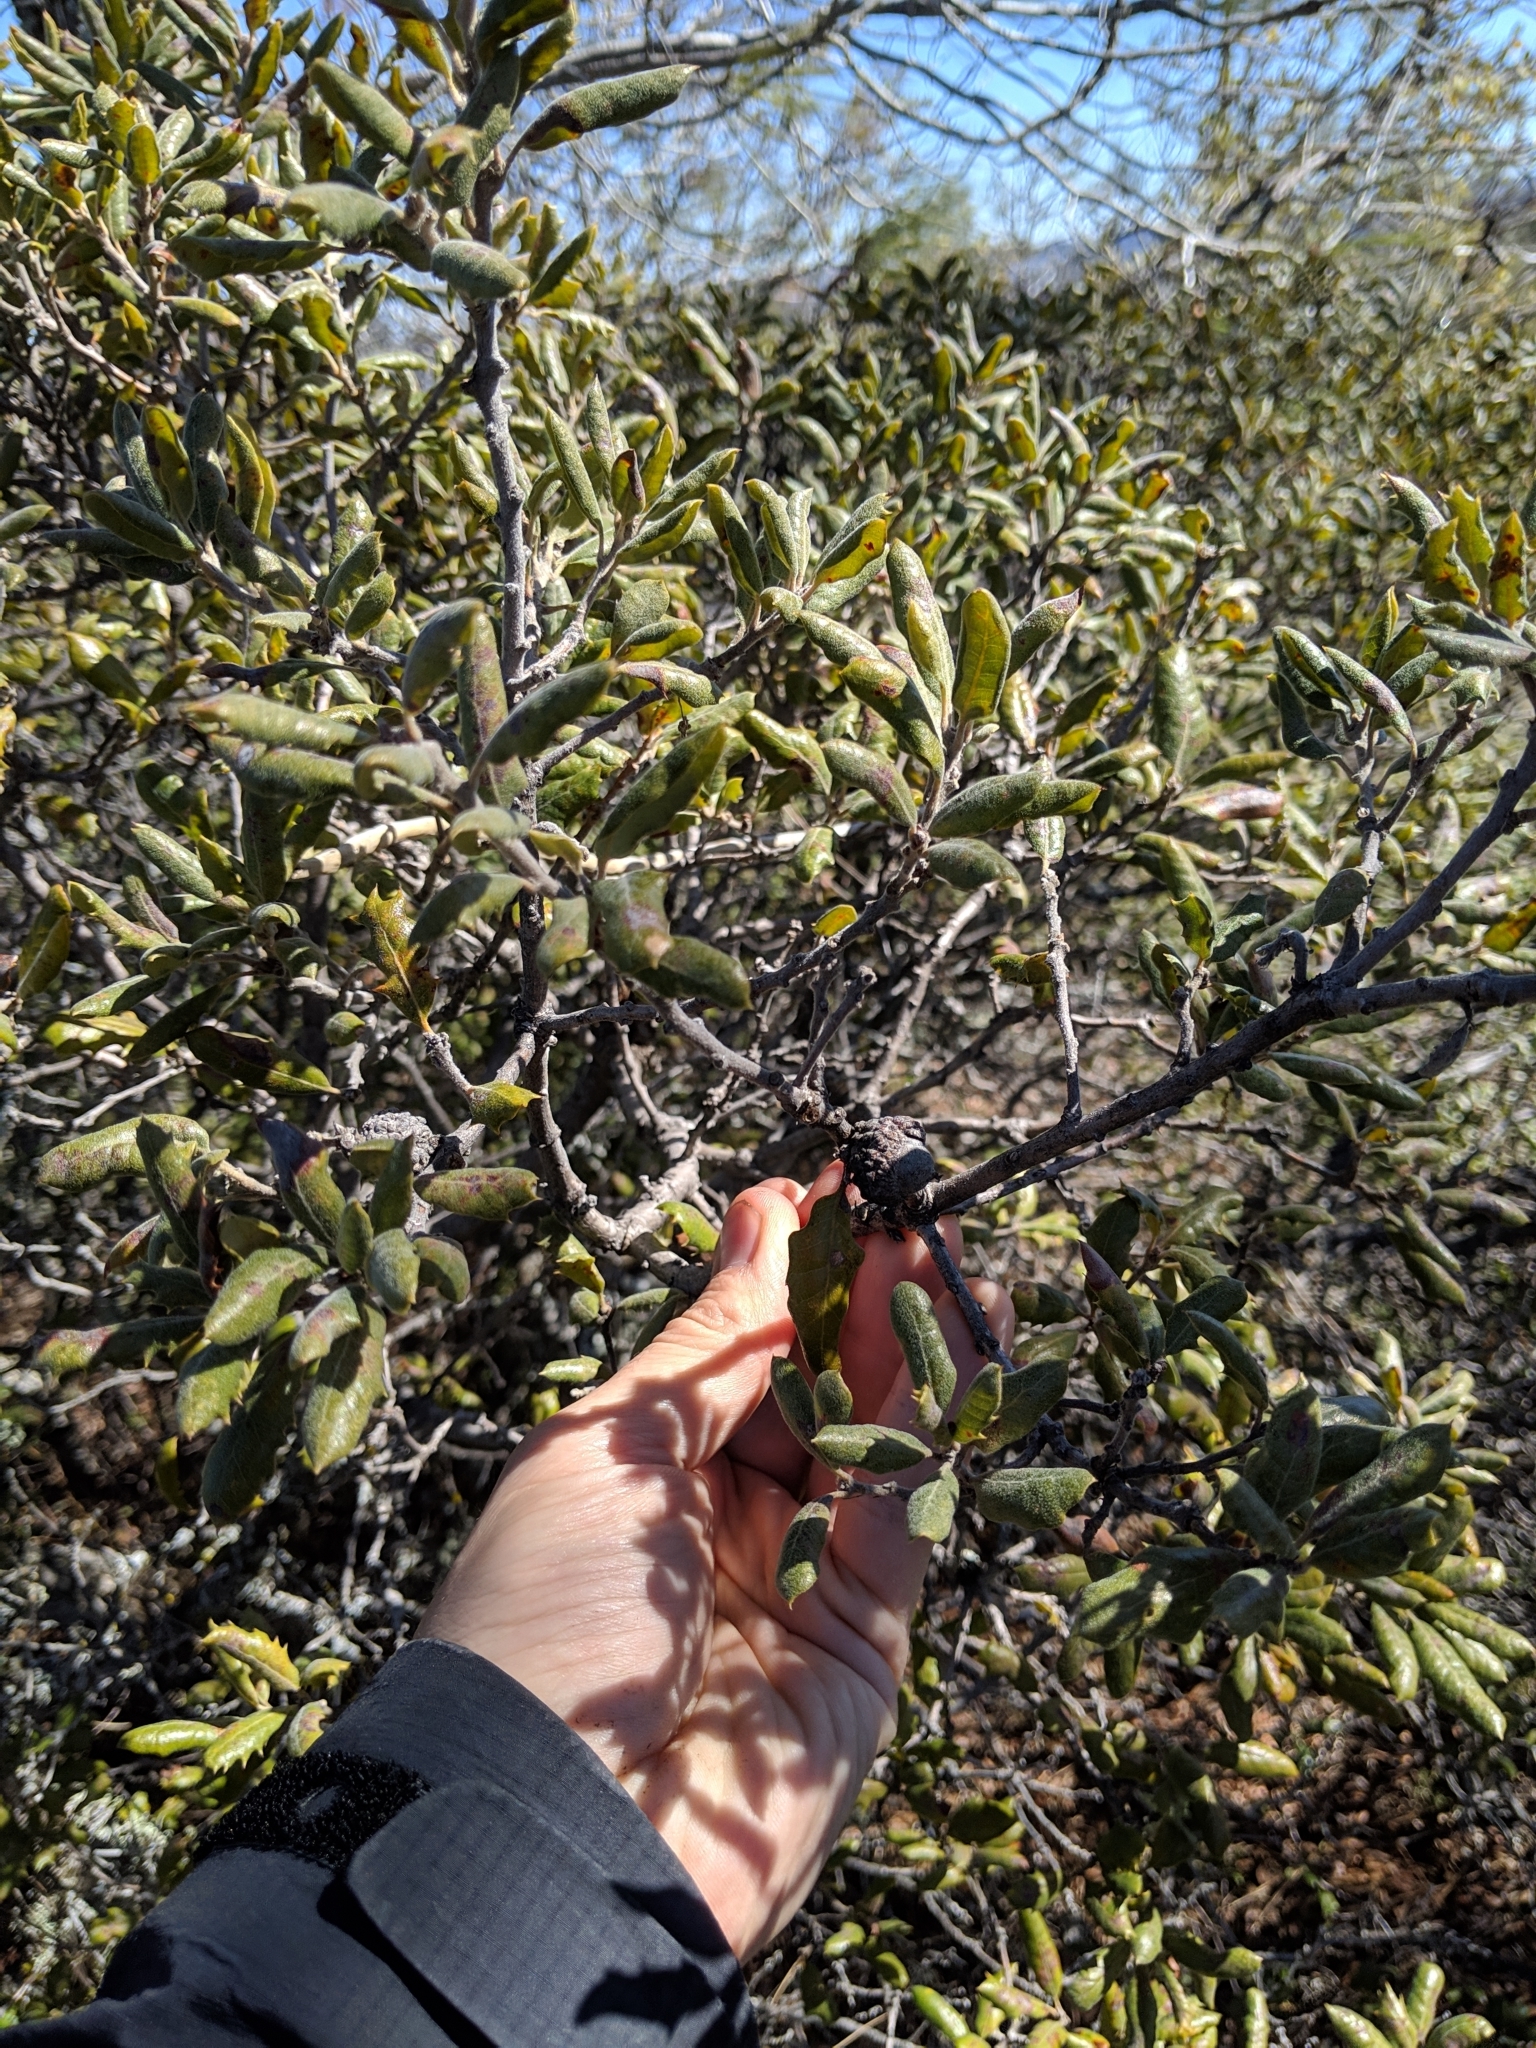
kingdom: Plantae
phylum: Tracheophyta
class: Magnoliopsida
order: Fagales
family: Fagaceae
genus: Quercus
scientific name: Quercus durata
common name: Leather oak
